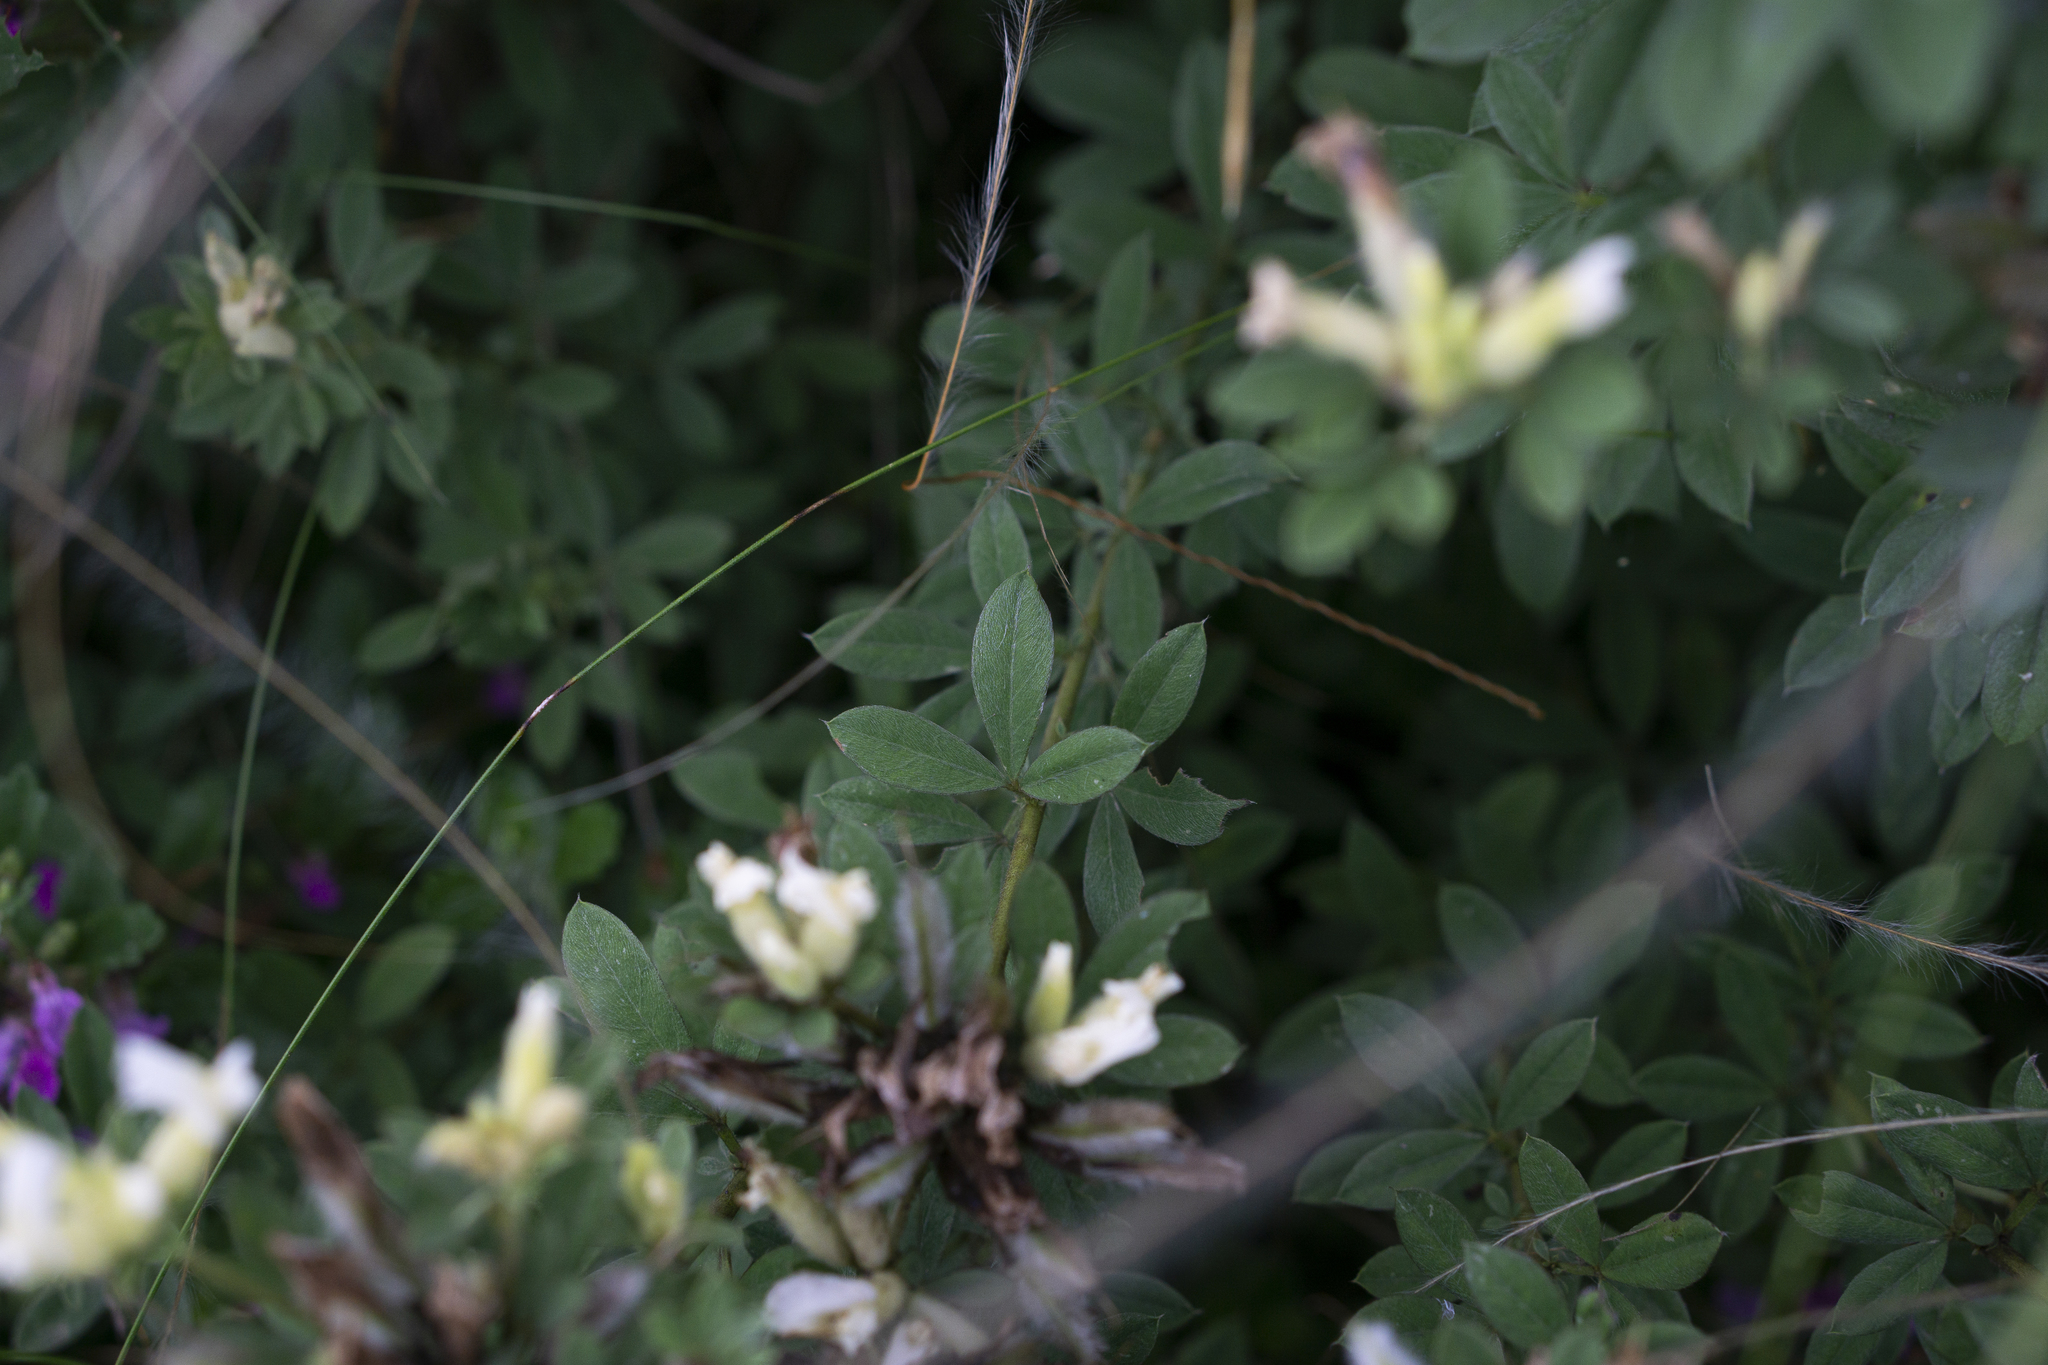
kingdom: Plantae
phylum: Tracheophyta
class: Magnoliopsida
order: Fabales
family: Fabaceae
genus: Chamaecytisus
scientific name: Chamaecytisus albus
